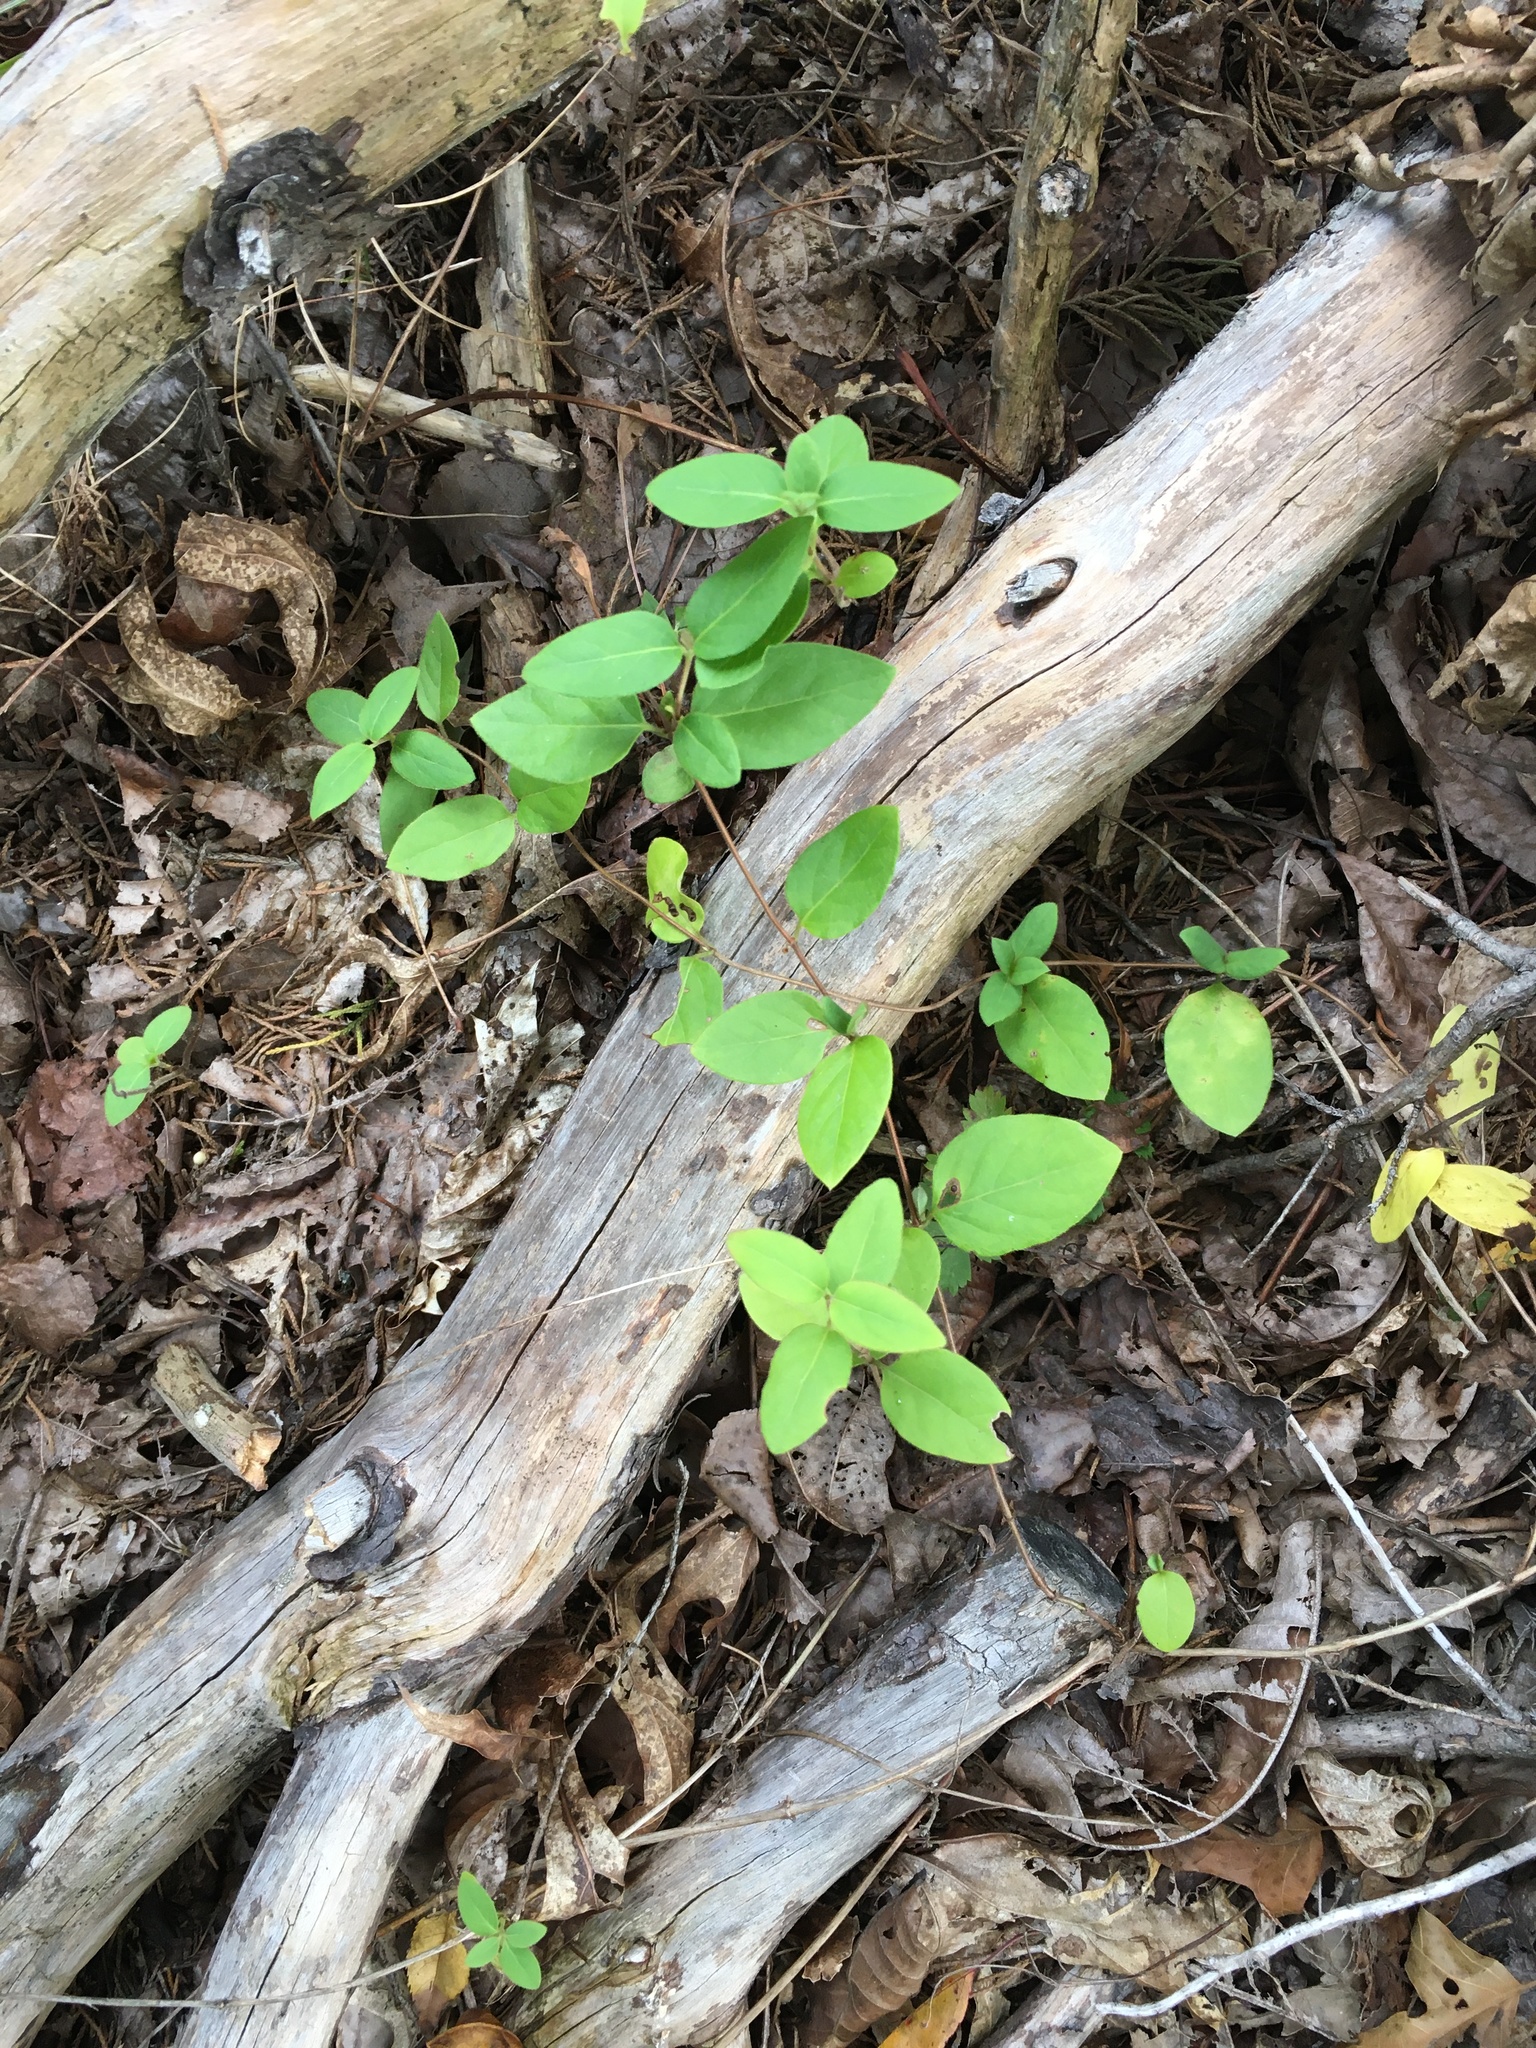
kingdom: Plantae
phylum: Tracheophyta
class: Magnoliopsida
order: Dipsacales
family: Caprifoliaceae
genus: Lonicera
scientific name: Lonicera japonica
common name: Japanese honeysuckle
